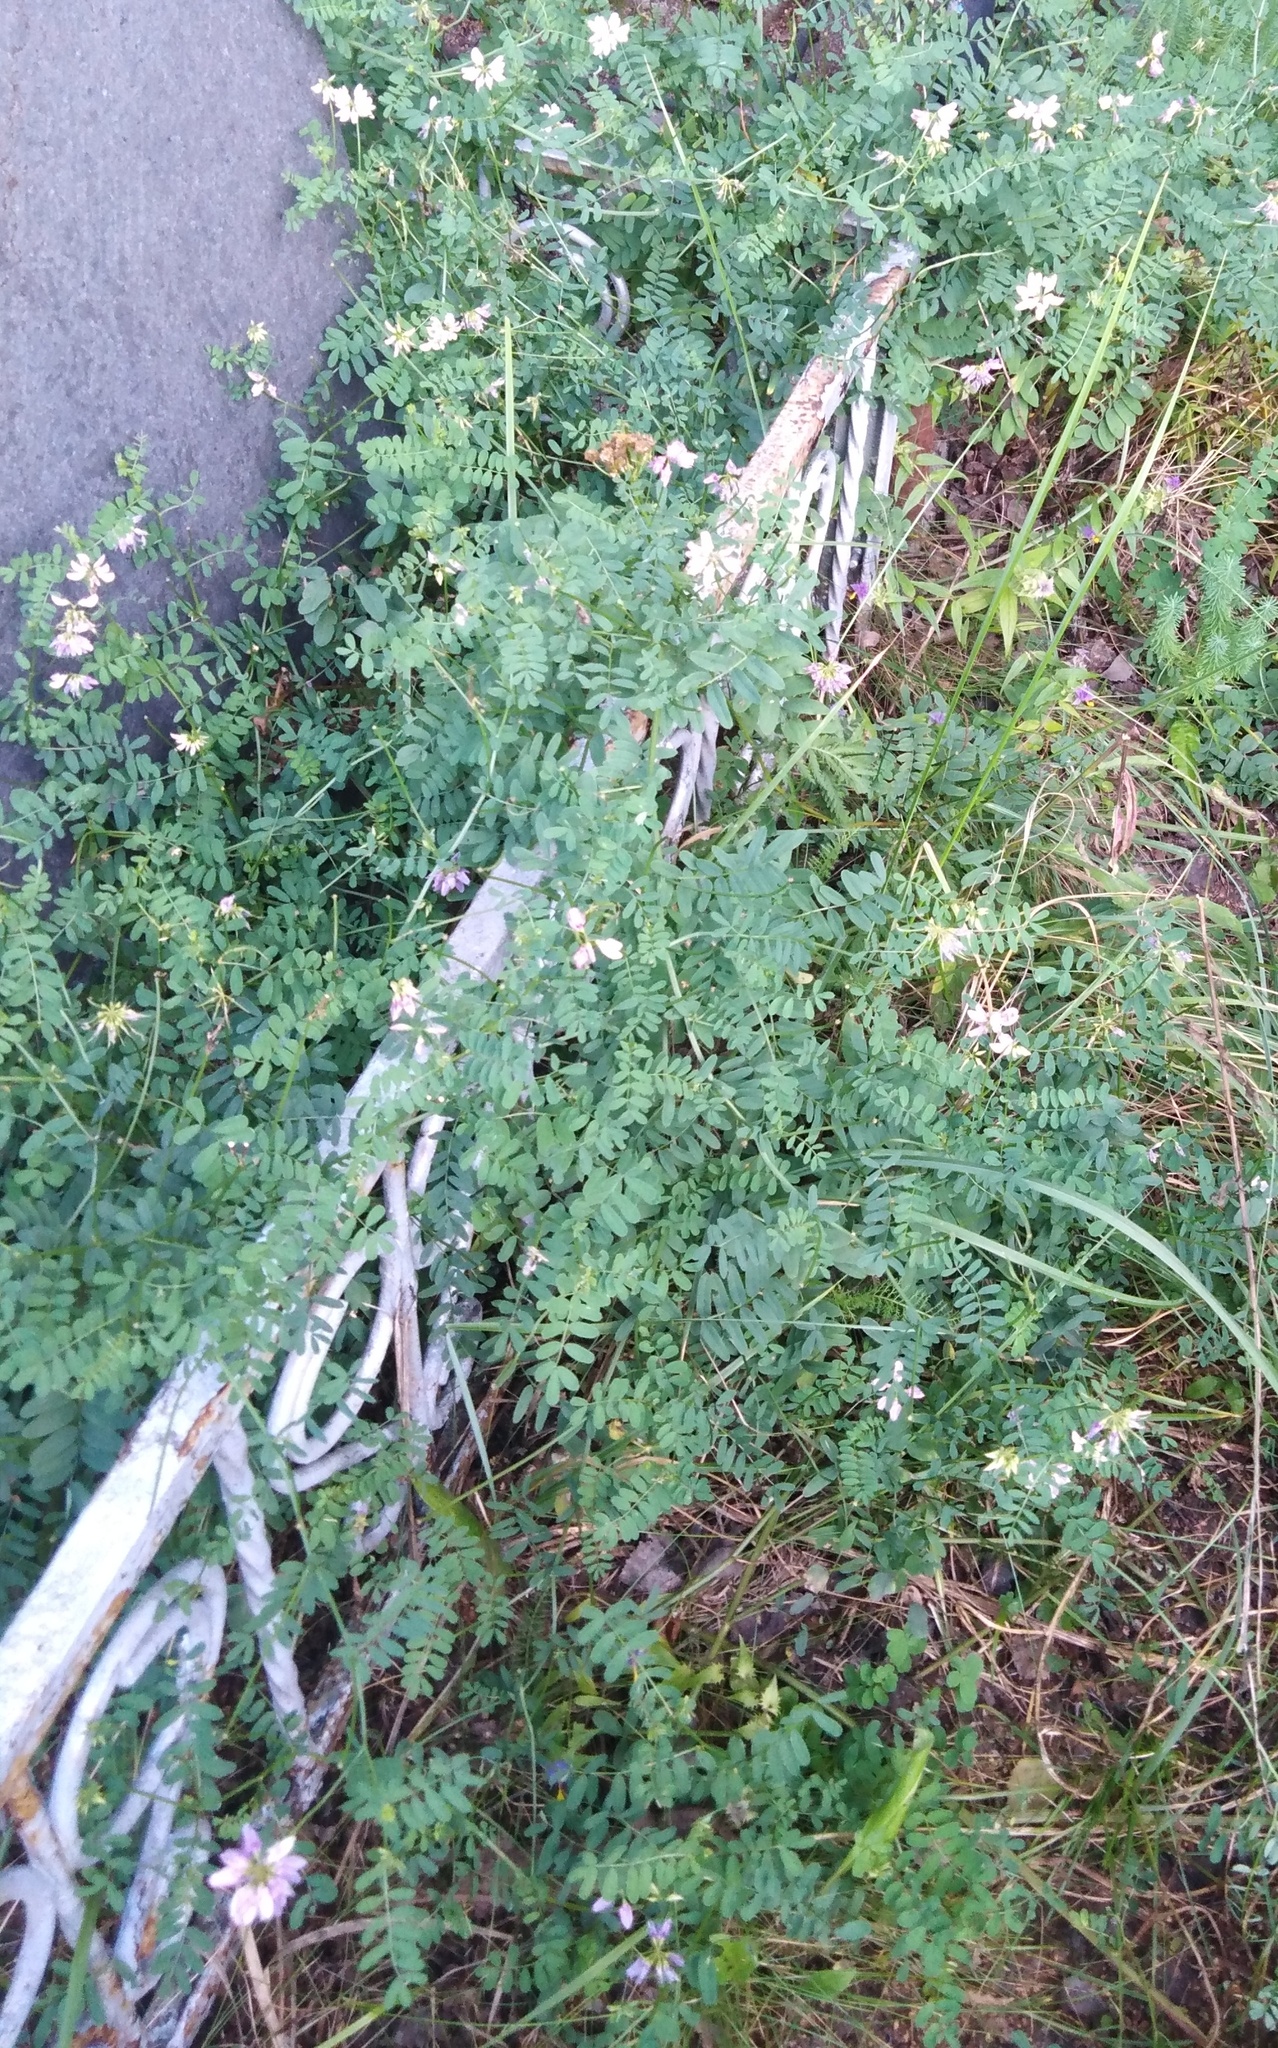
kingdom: Plantae
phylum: Tracheophyta
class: Magnoliopsida
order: Fabales
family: Fabaceae
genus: Coronilla
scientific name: Coronilla varia
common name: Crownvetch
